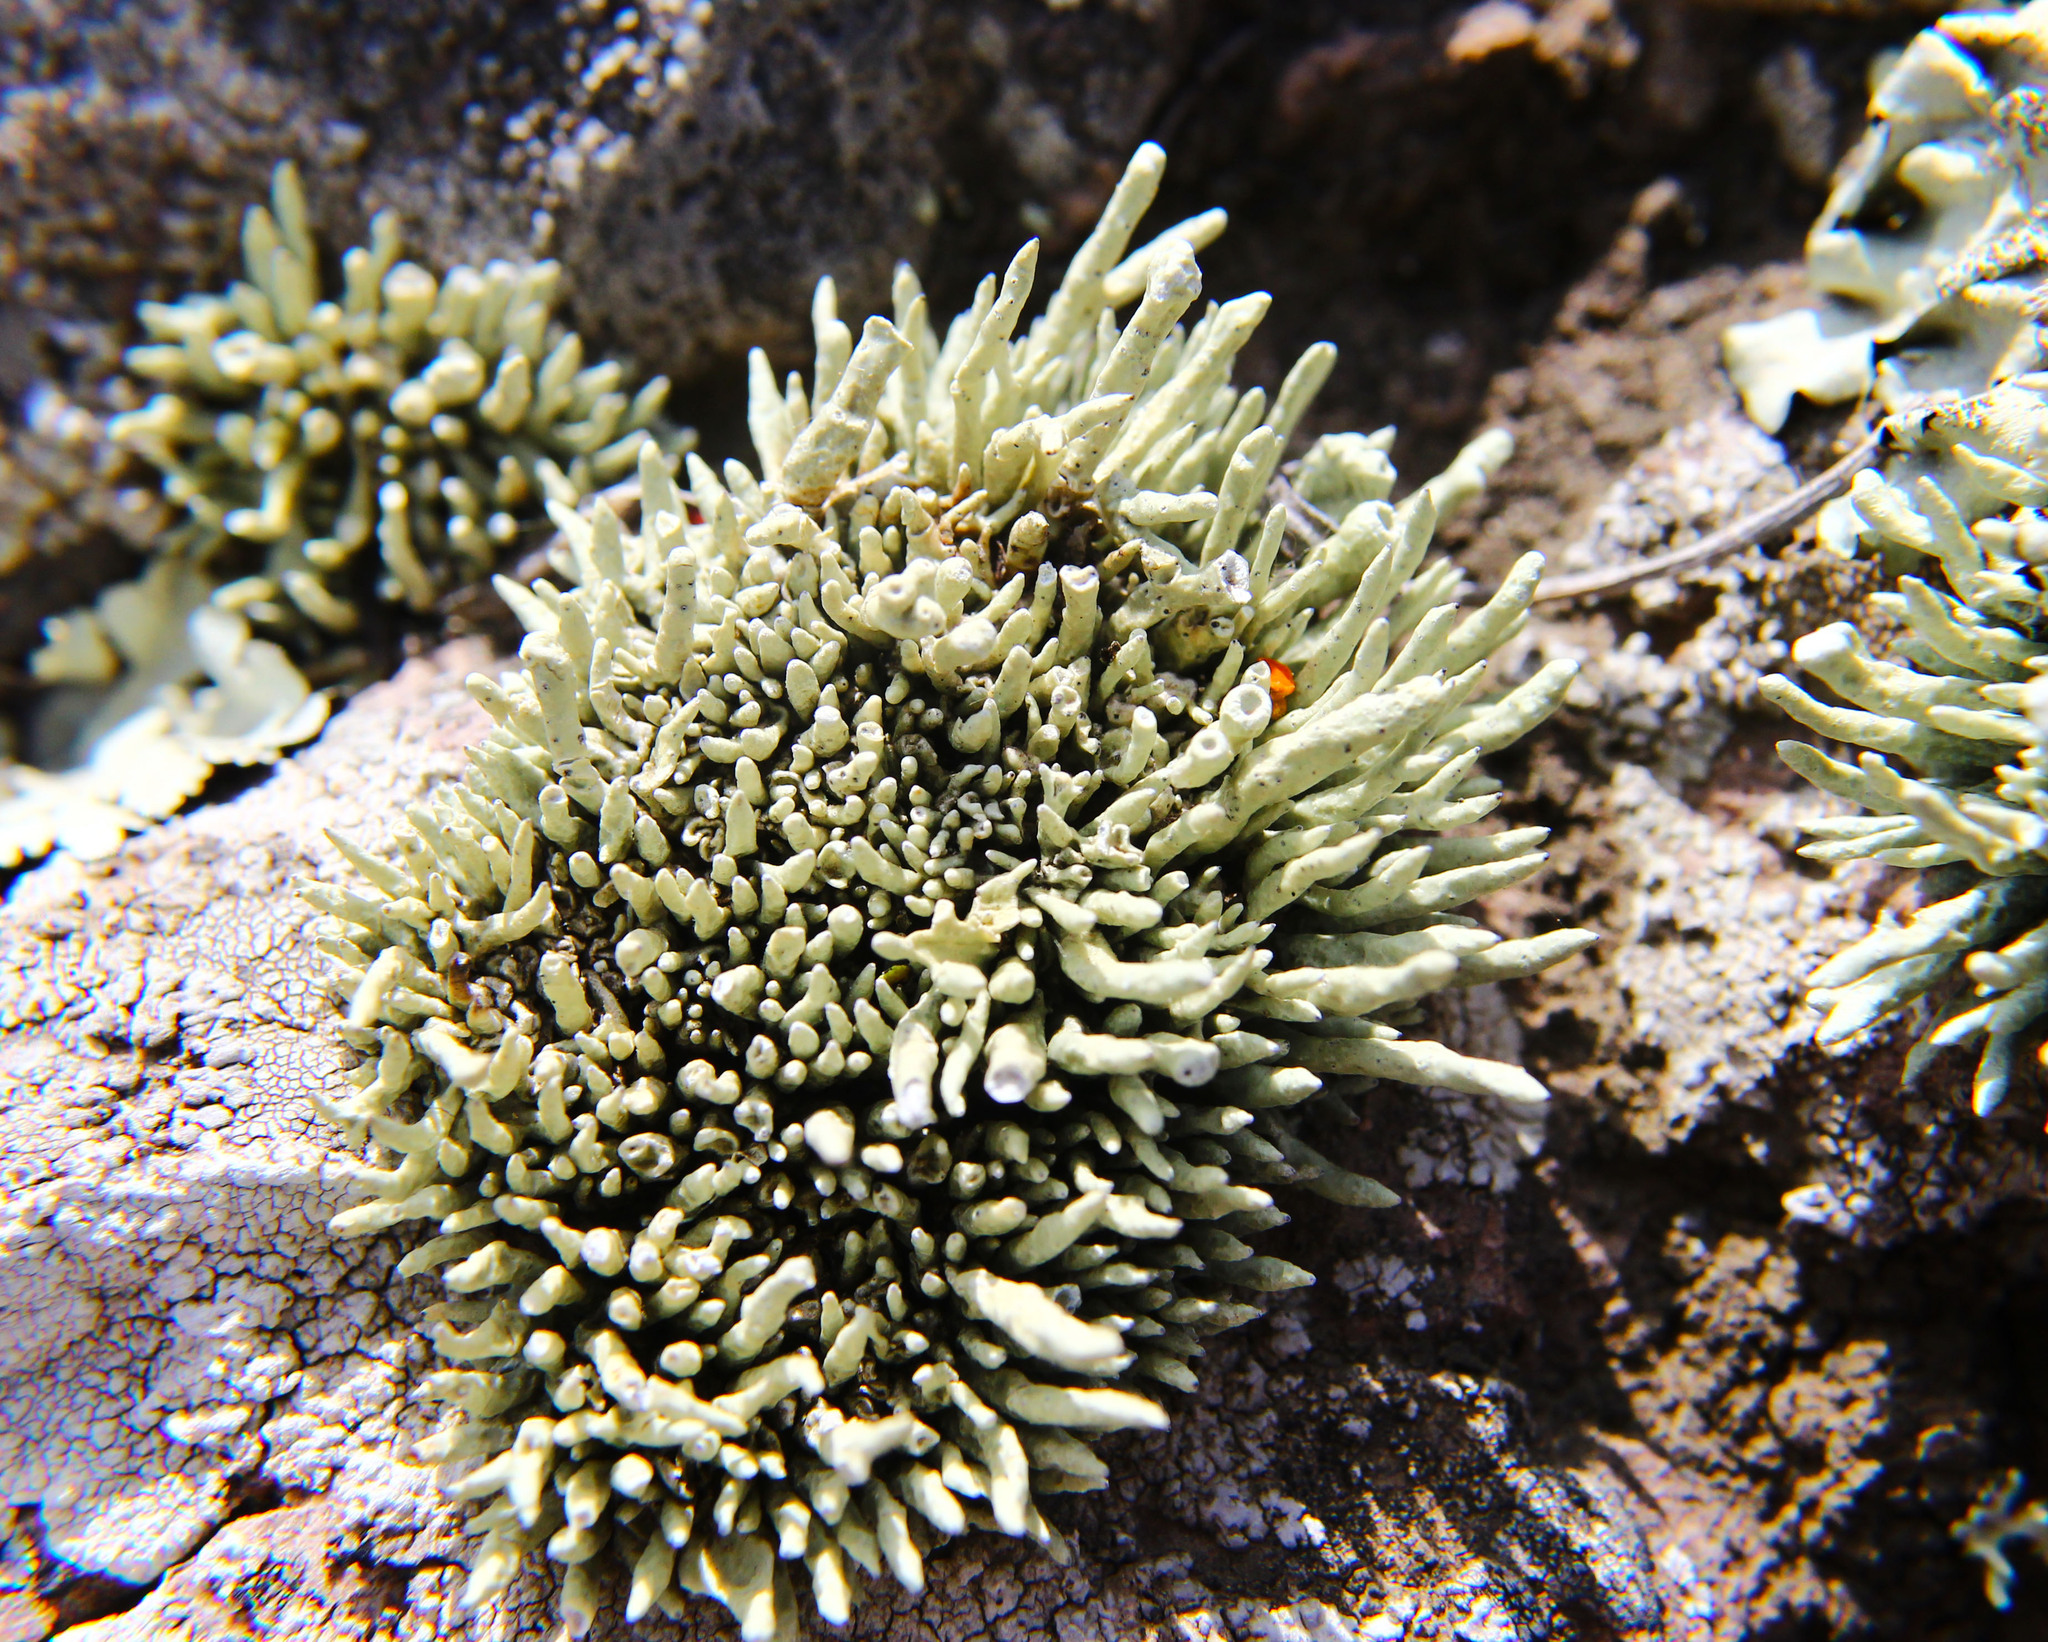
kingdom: Fungi
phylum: Ascomycota
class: Lecanoromycetes
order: Lecanorales
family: Ramalinaceae
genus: Niebla
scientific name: Niebla combeoides
